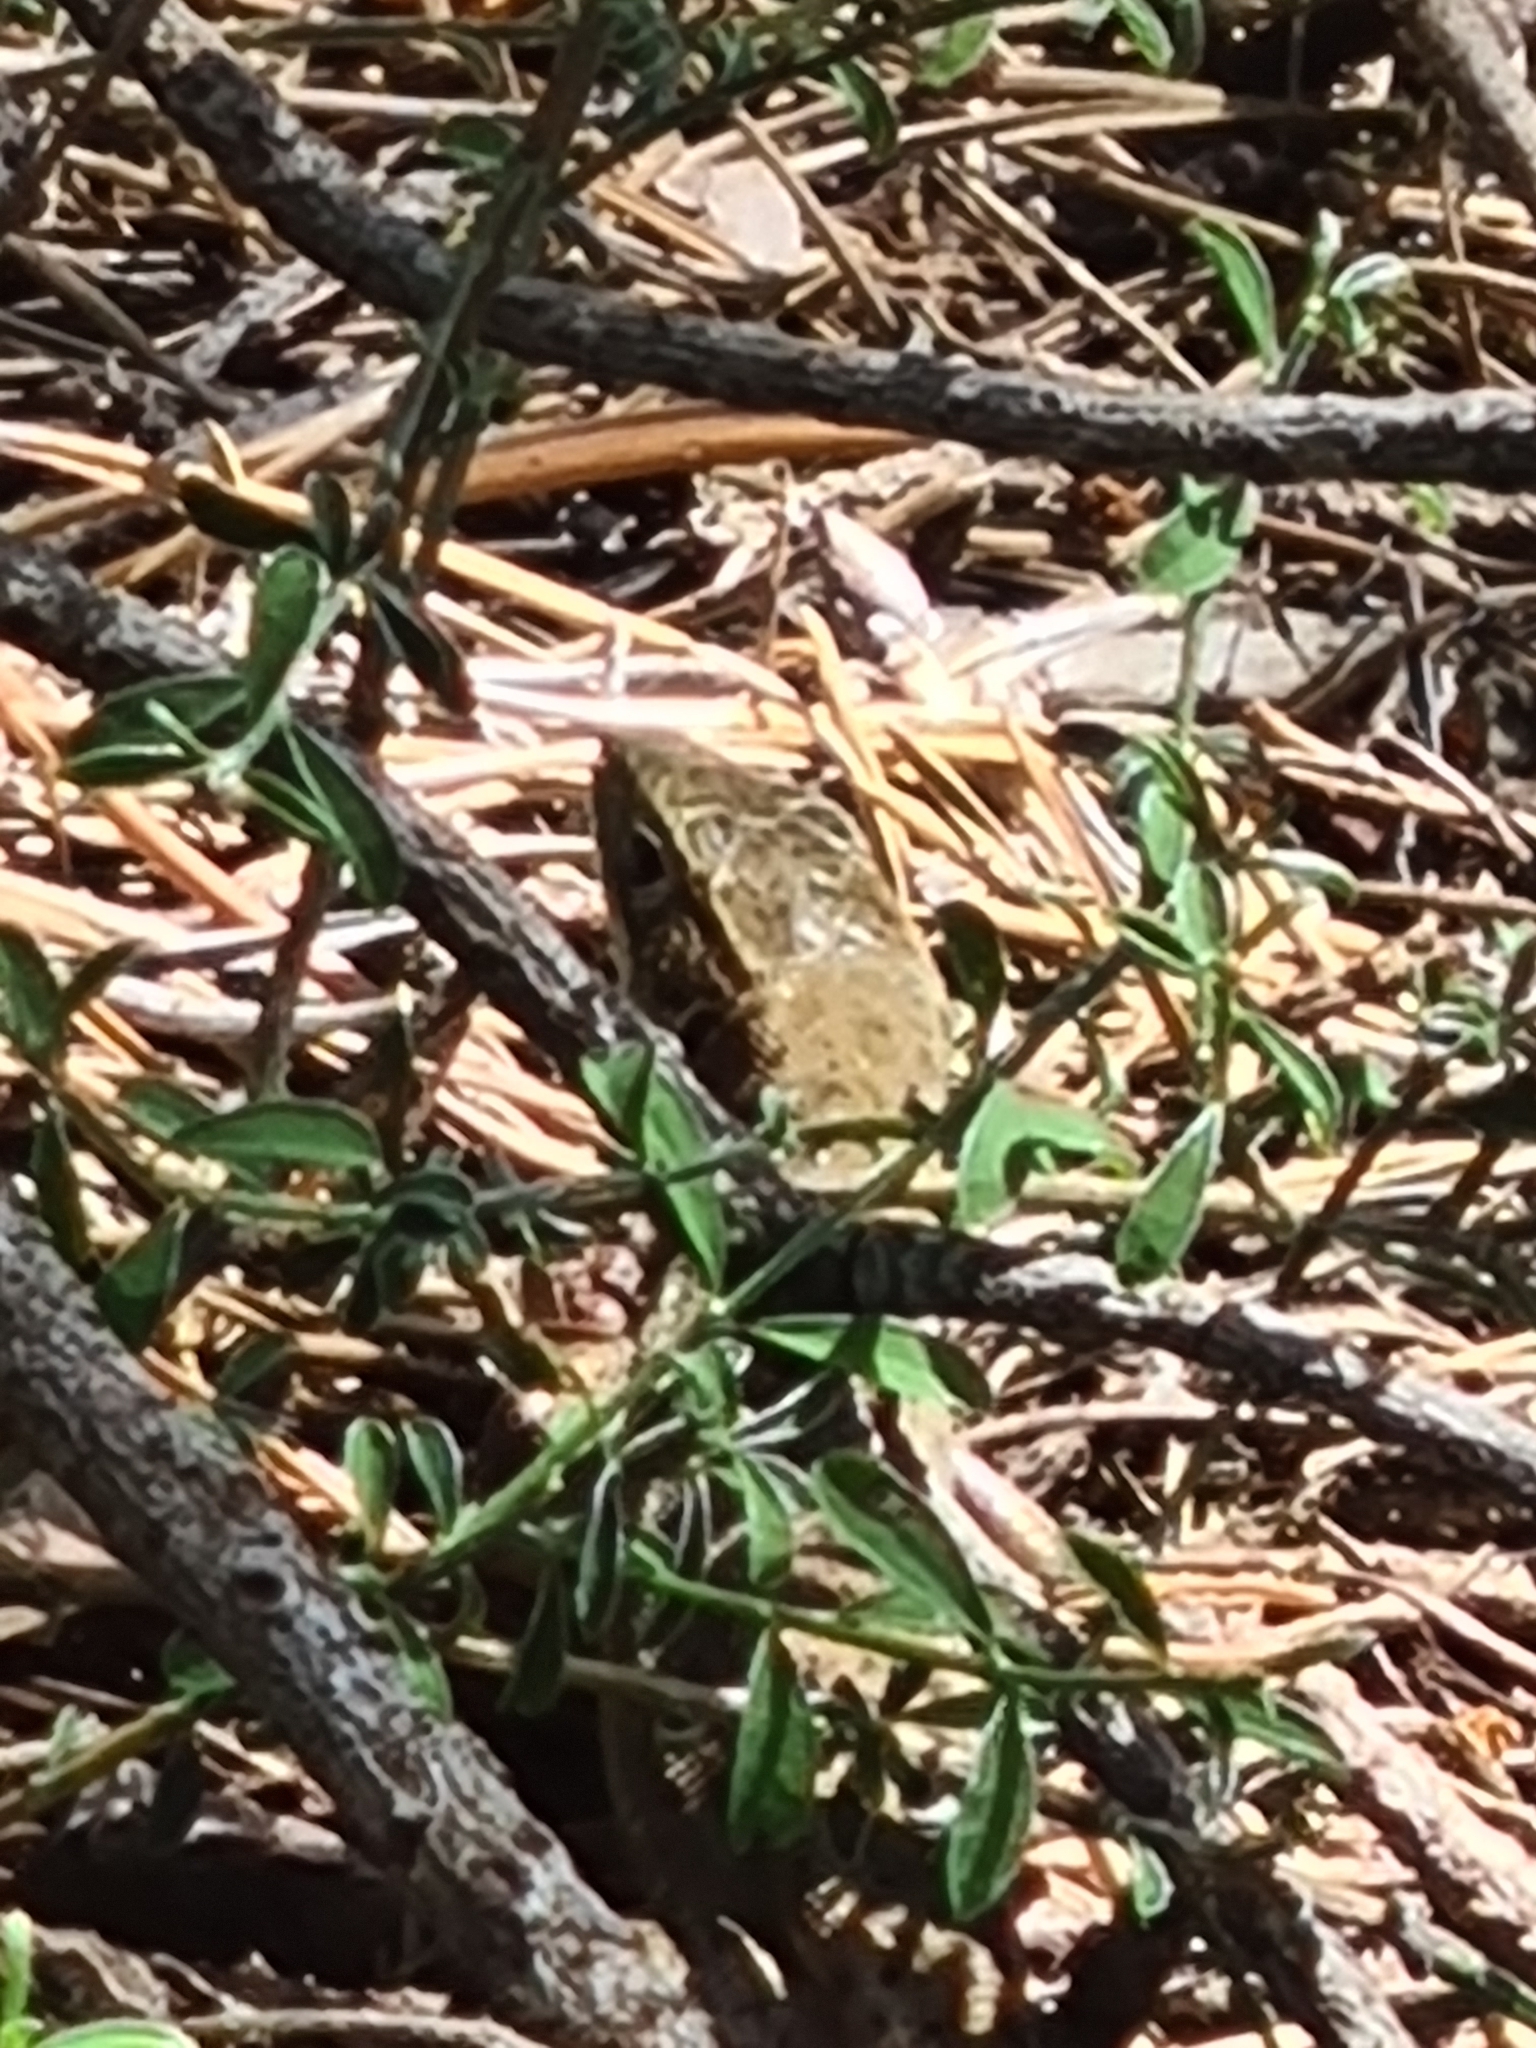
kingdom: Animalia
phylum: Chordata
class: Squamata
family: Lacertidae
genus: Lacerta
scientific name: Lacerta viridis
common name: European green lizard
